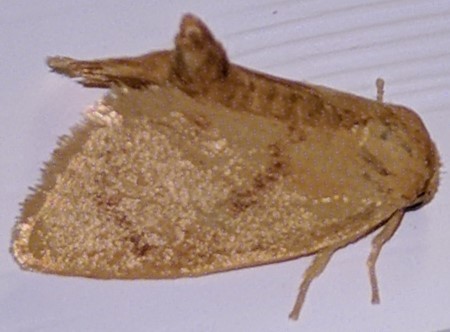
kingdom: Animalia
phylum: Arthropoda
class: Insecta
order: Lepidoptera
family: Limacodidae
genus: Tortricidia
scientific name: Tortricidia flexuosa
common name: Abbreviated button slug moth
